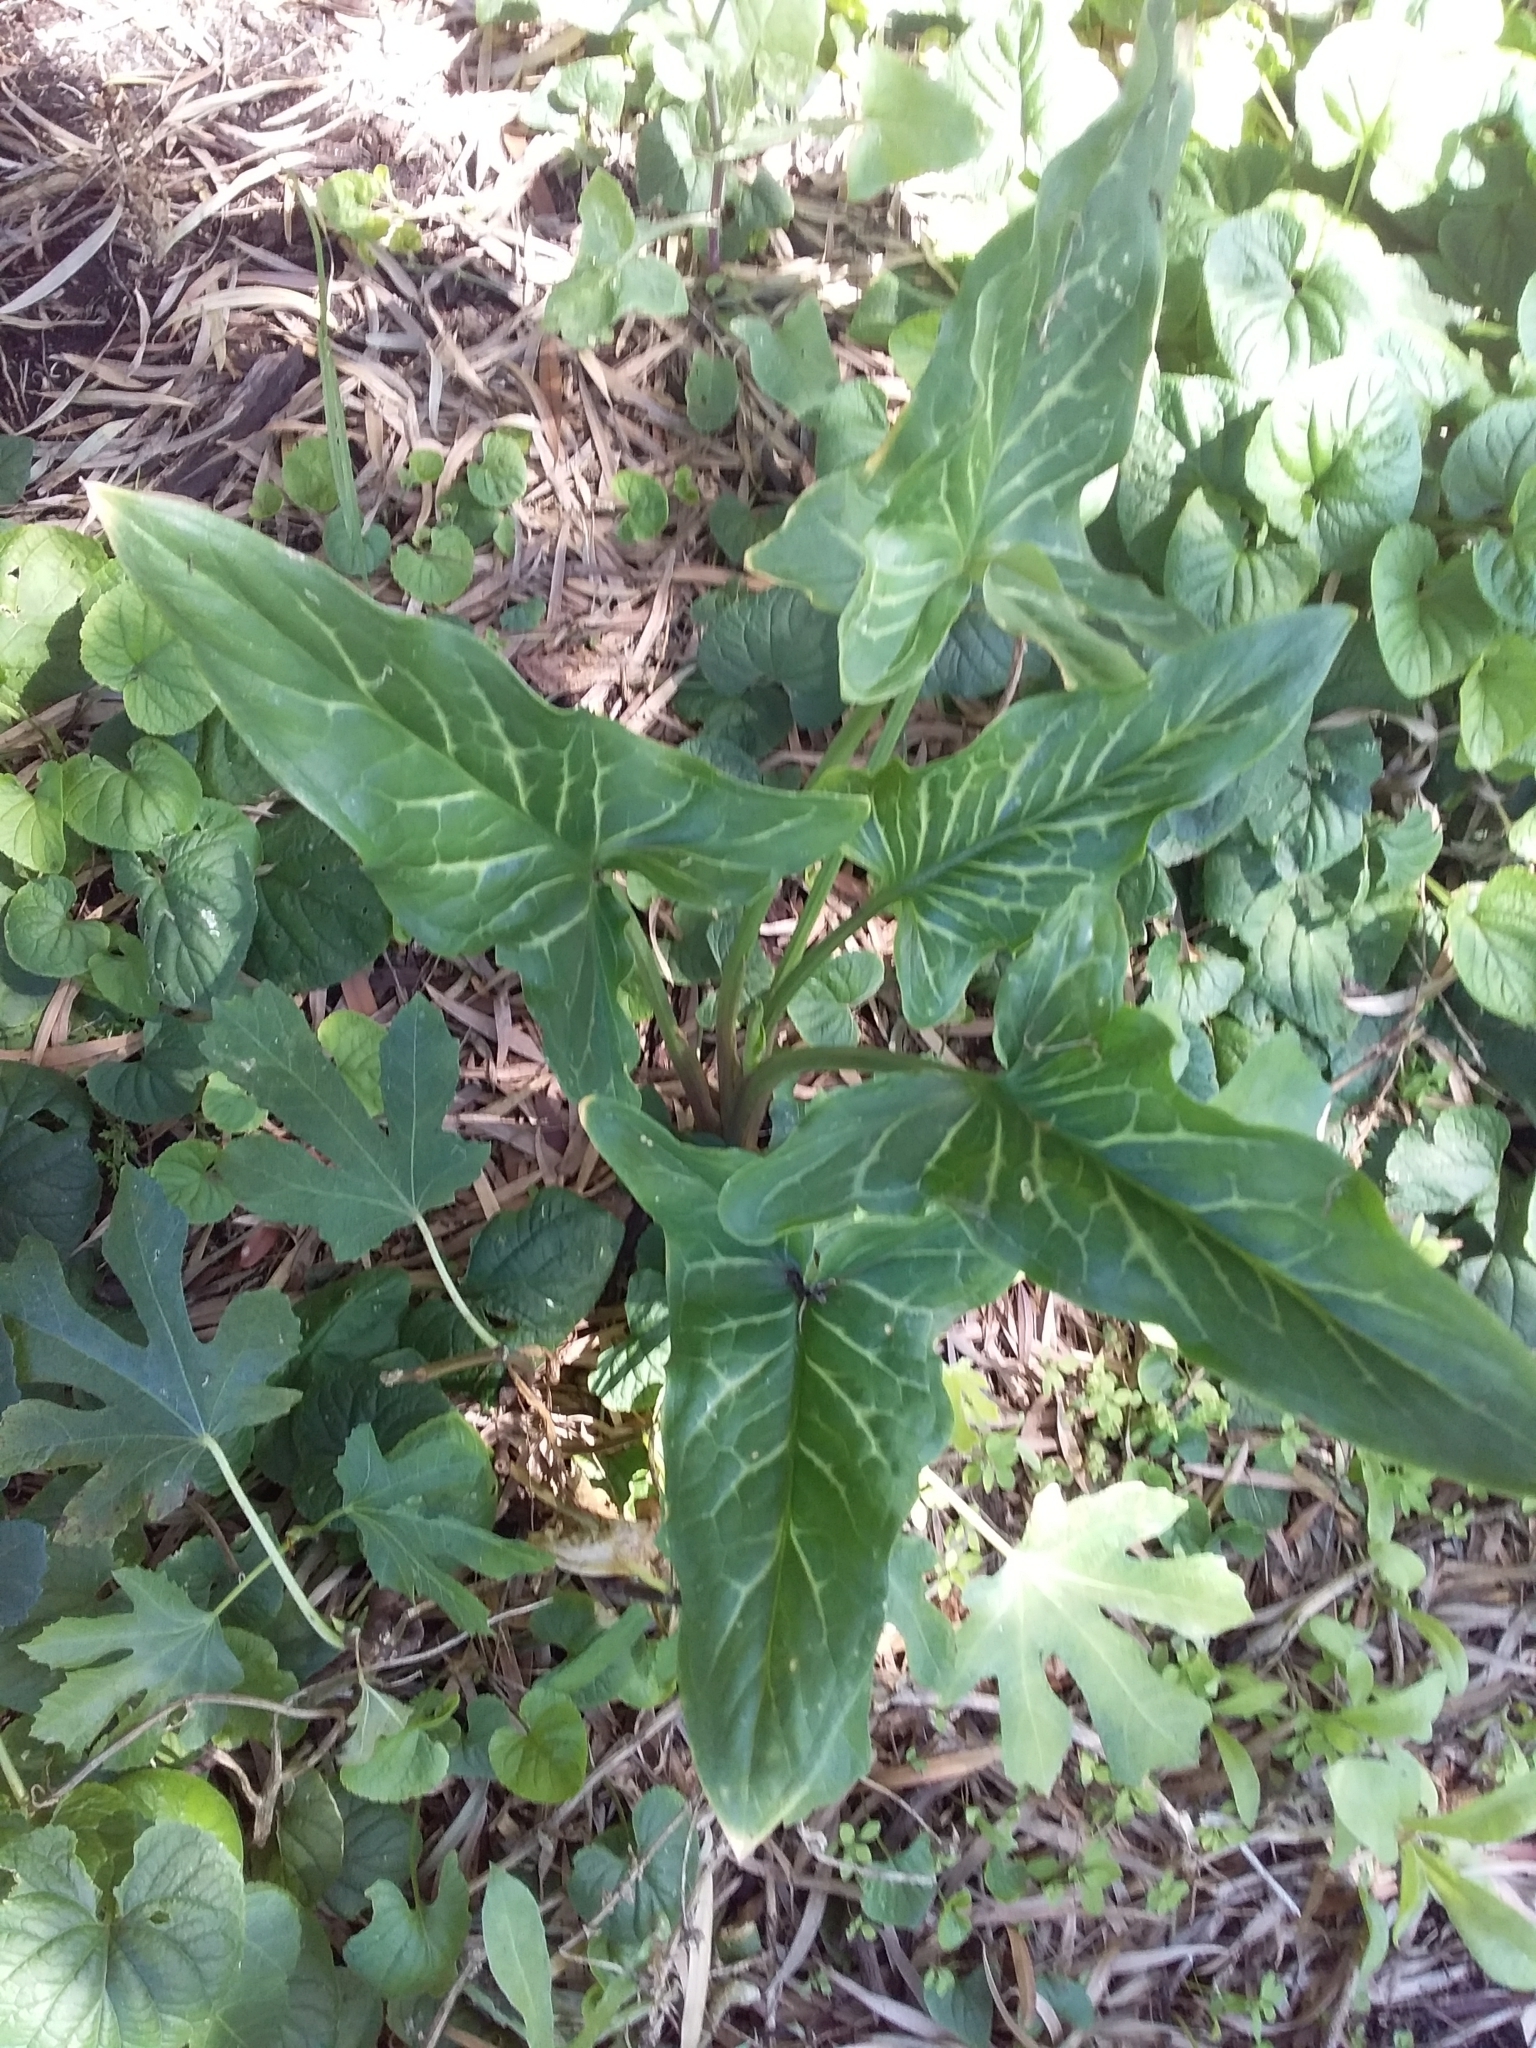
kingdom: Plantae
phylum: Tracheophyta
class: Liliopsida
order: Alismatales
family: Araceae
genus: Arum
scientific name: Arum italicum
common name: Italian lords-and-ladies
